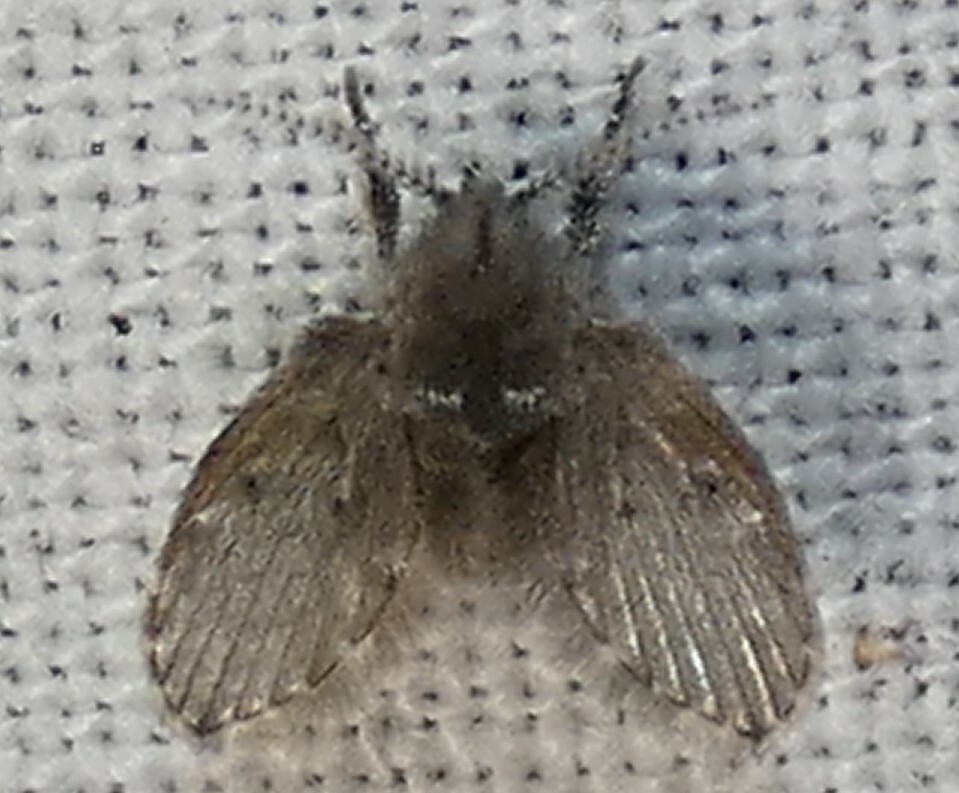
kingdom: Animalia
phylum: Arthropoda
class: Insecta
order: Diptera
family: Psychodidae
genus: Clogmia
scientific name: Clogmia albipunctatus
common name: White-spotted moth fly
